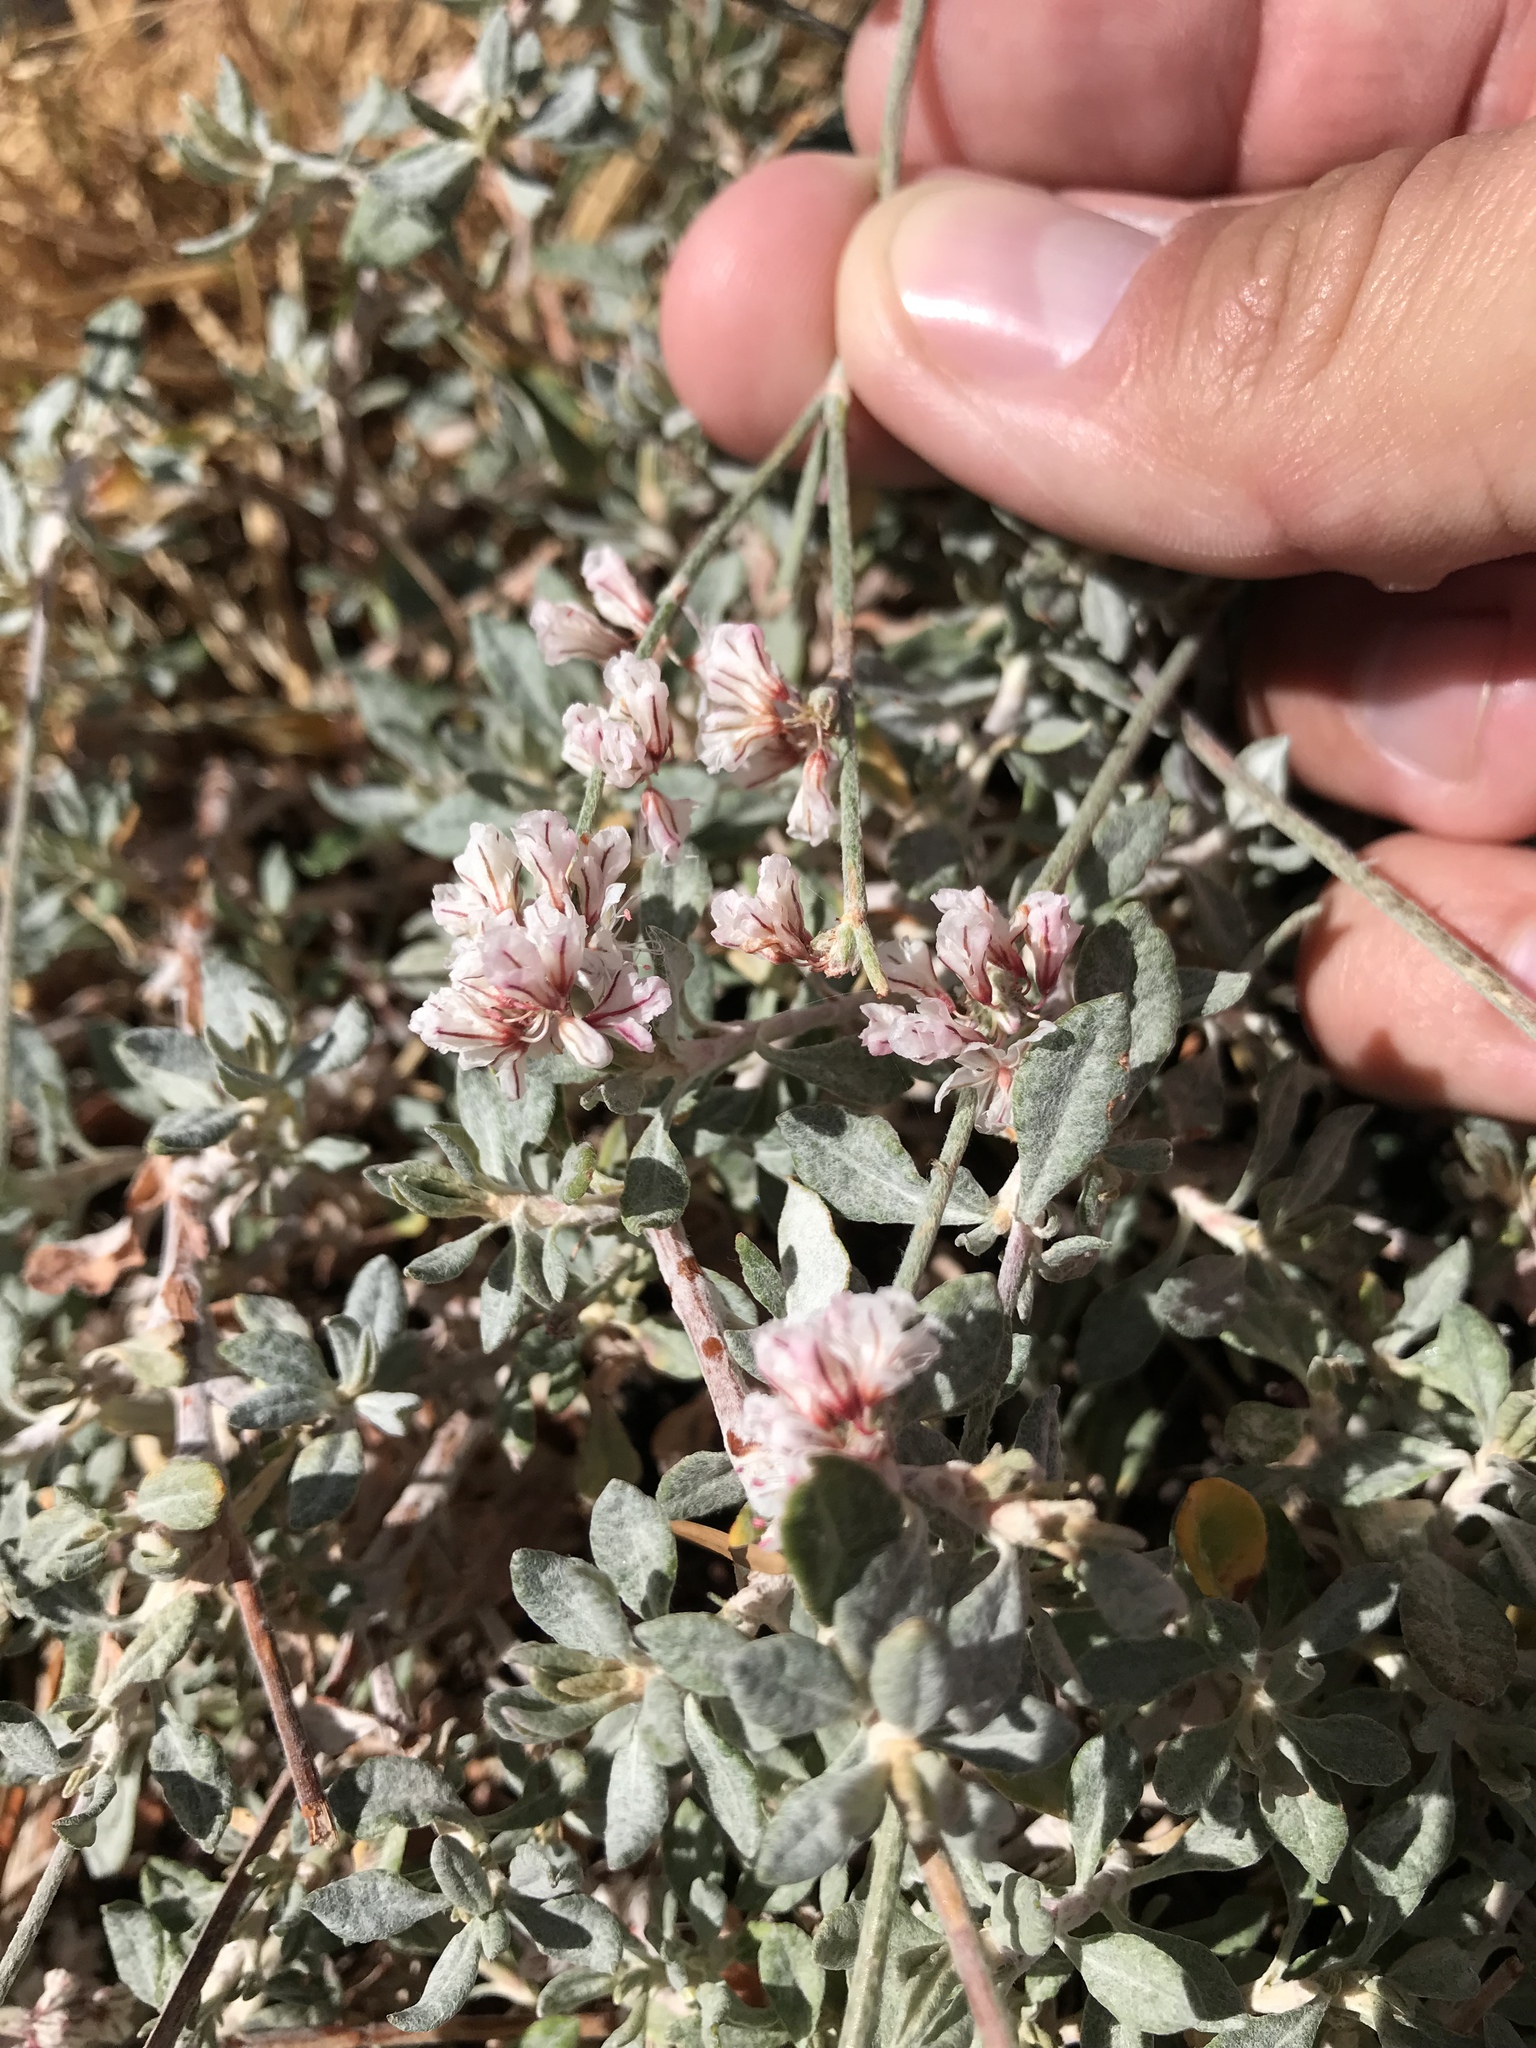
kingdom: Plantae
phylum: Tracheophyta
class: Magnoliopsida
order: Caryophyllales
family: Polygonaceae
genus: Eriogonum
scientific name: Eriogonum wrightii
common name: Bastard-sage
